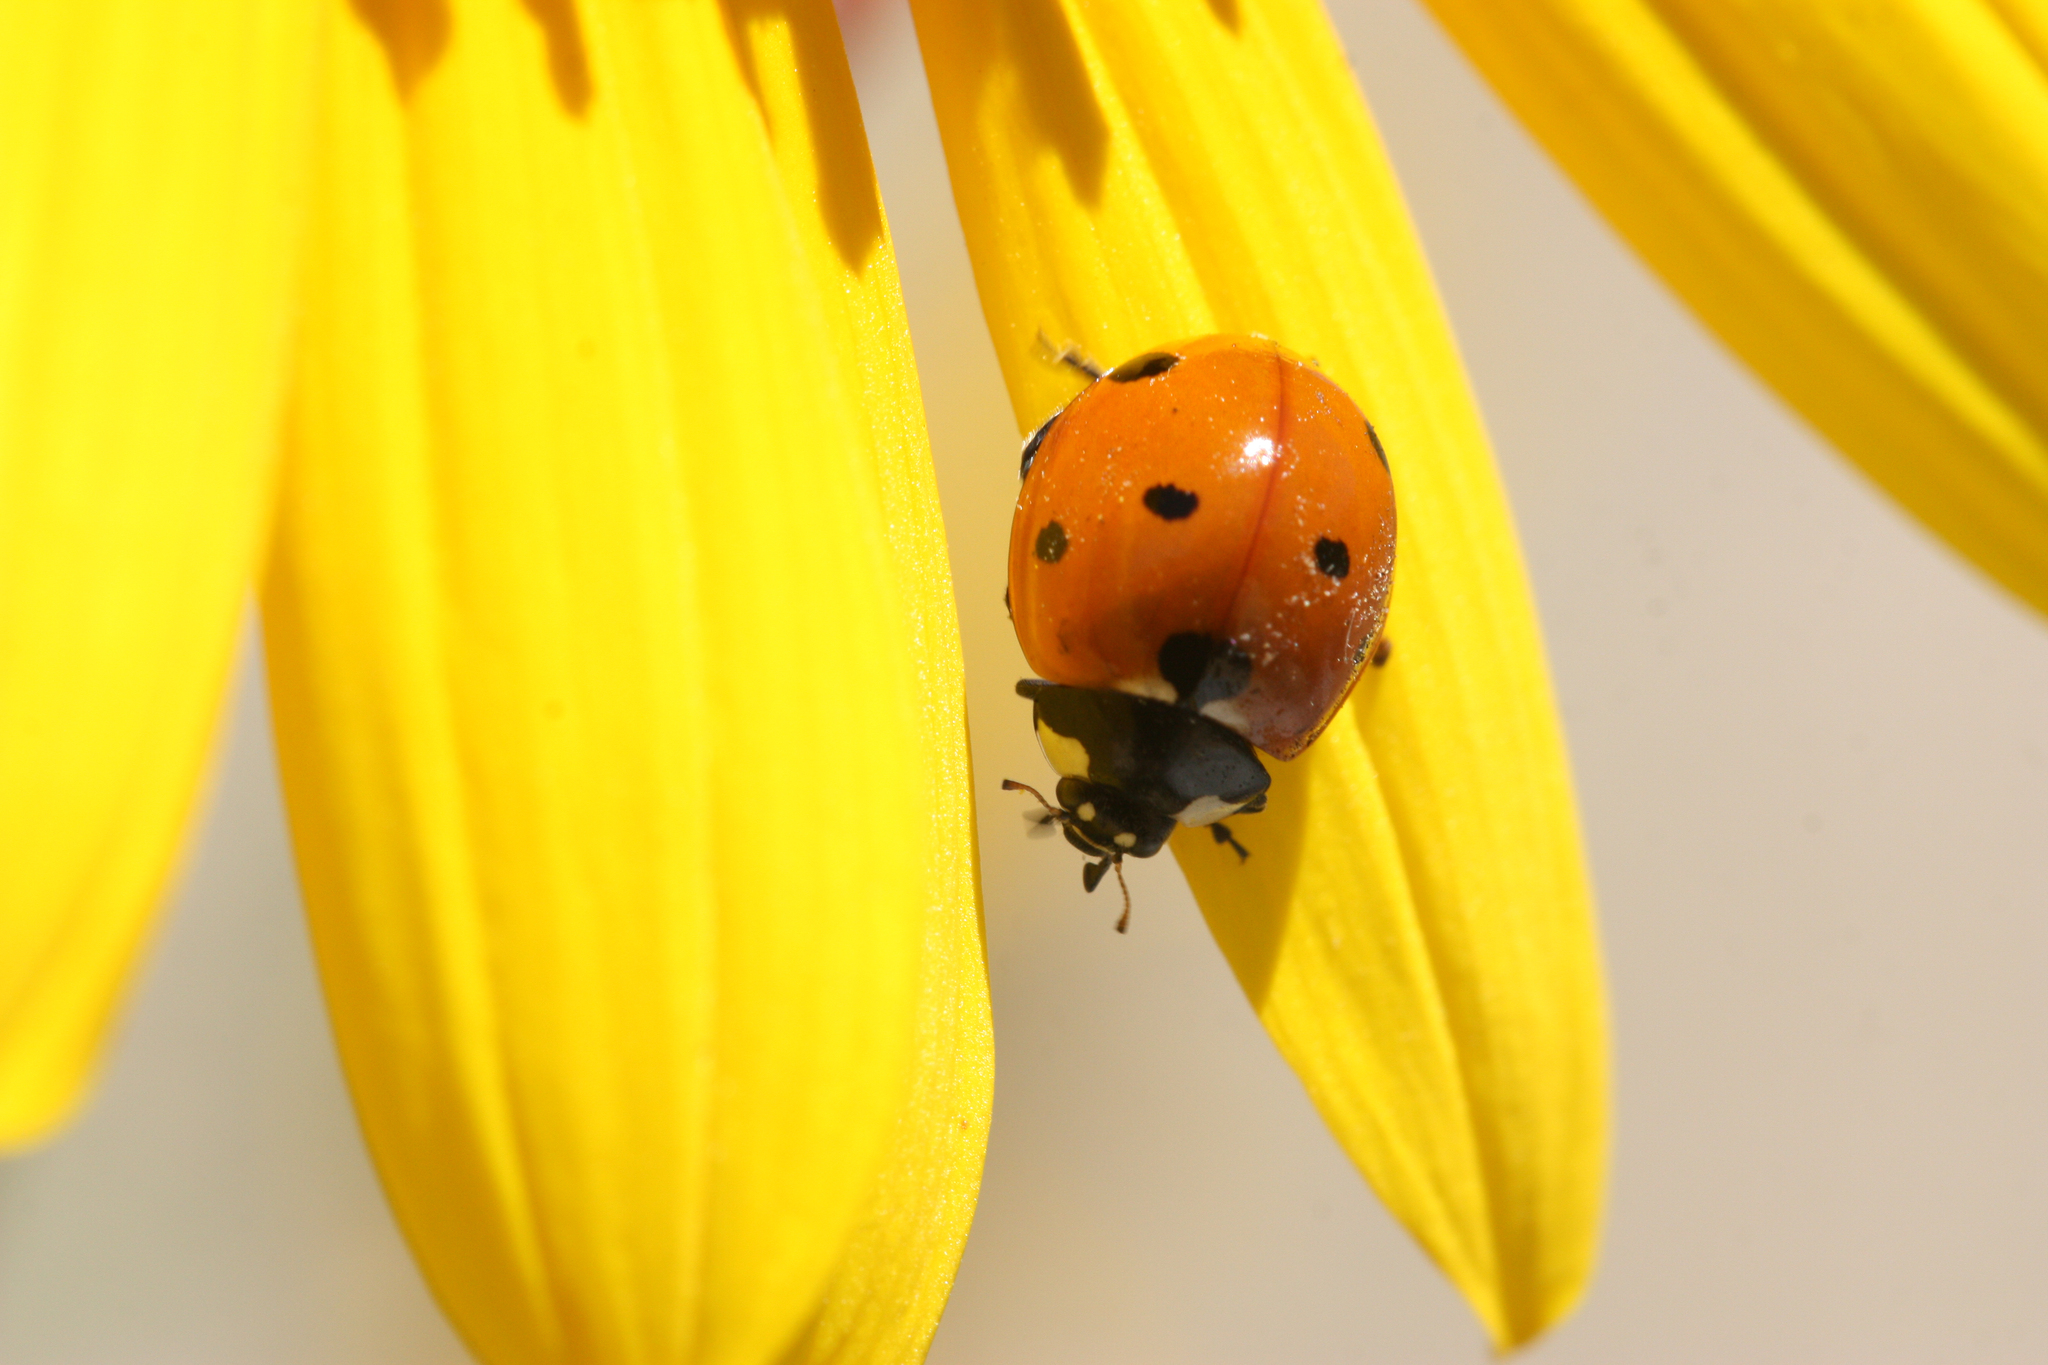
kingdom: Animalia
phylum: Arthropoda
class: Insecta
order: Coleoptera
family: Coccinellidae
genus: Coccinella
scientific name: Coccinella septempunctata
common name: Sevenspotted lady beetle
